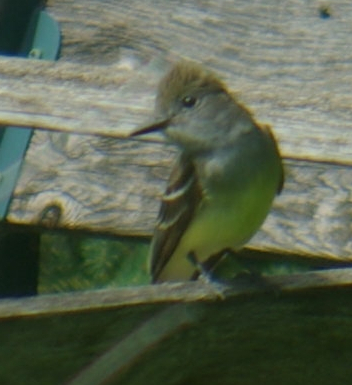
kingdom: Animalia
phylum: Chordata
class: Aves
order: Passeriformes
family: Tyrannidae
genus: Myiarchus
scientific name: Myiarchus crinitus
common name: Great crested flycatcher
